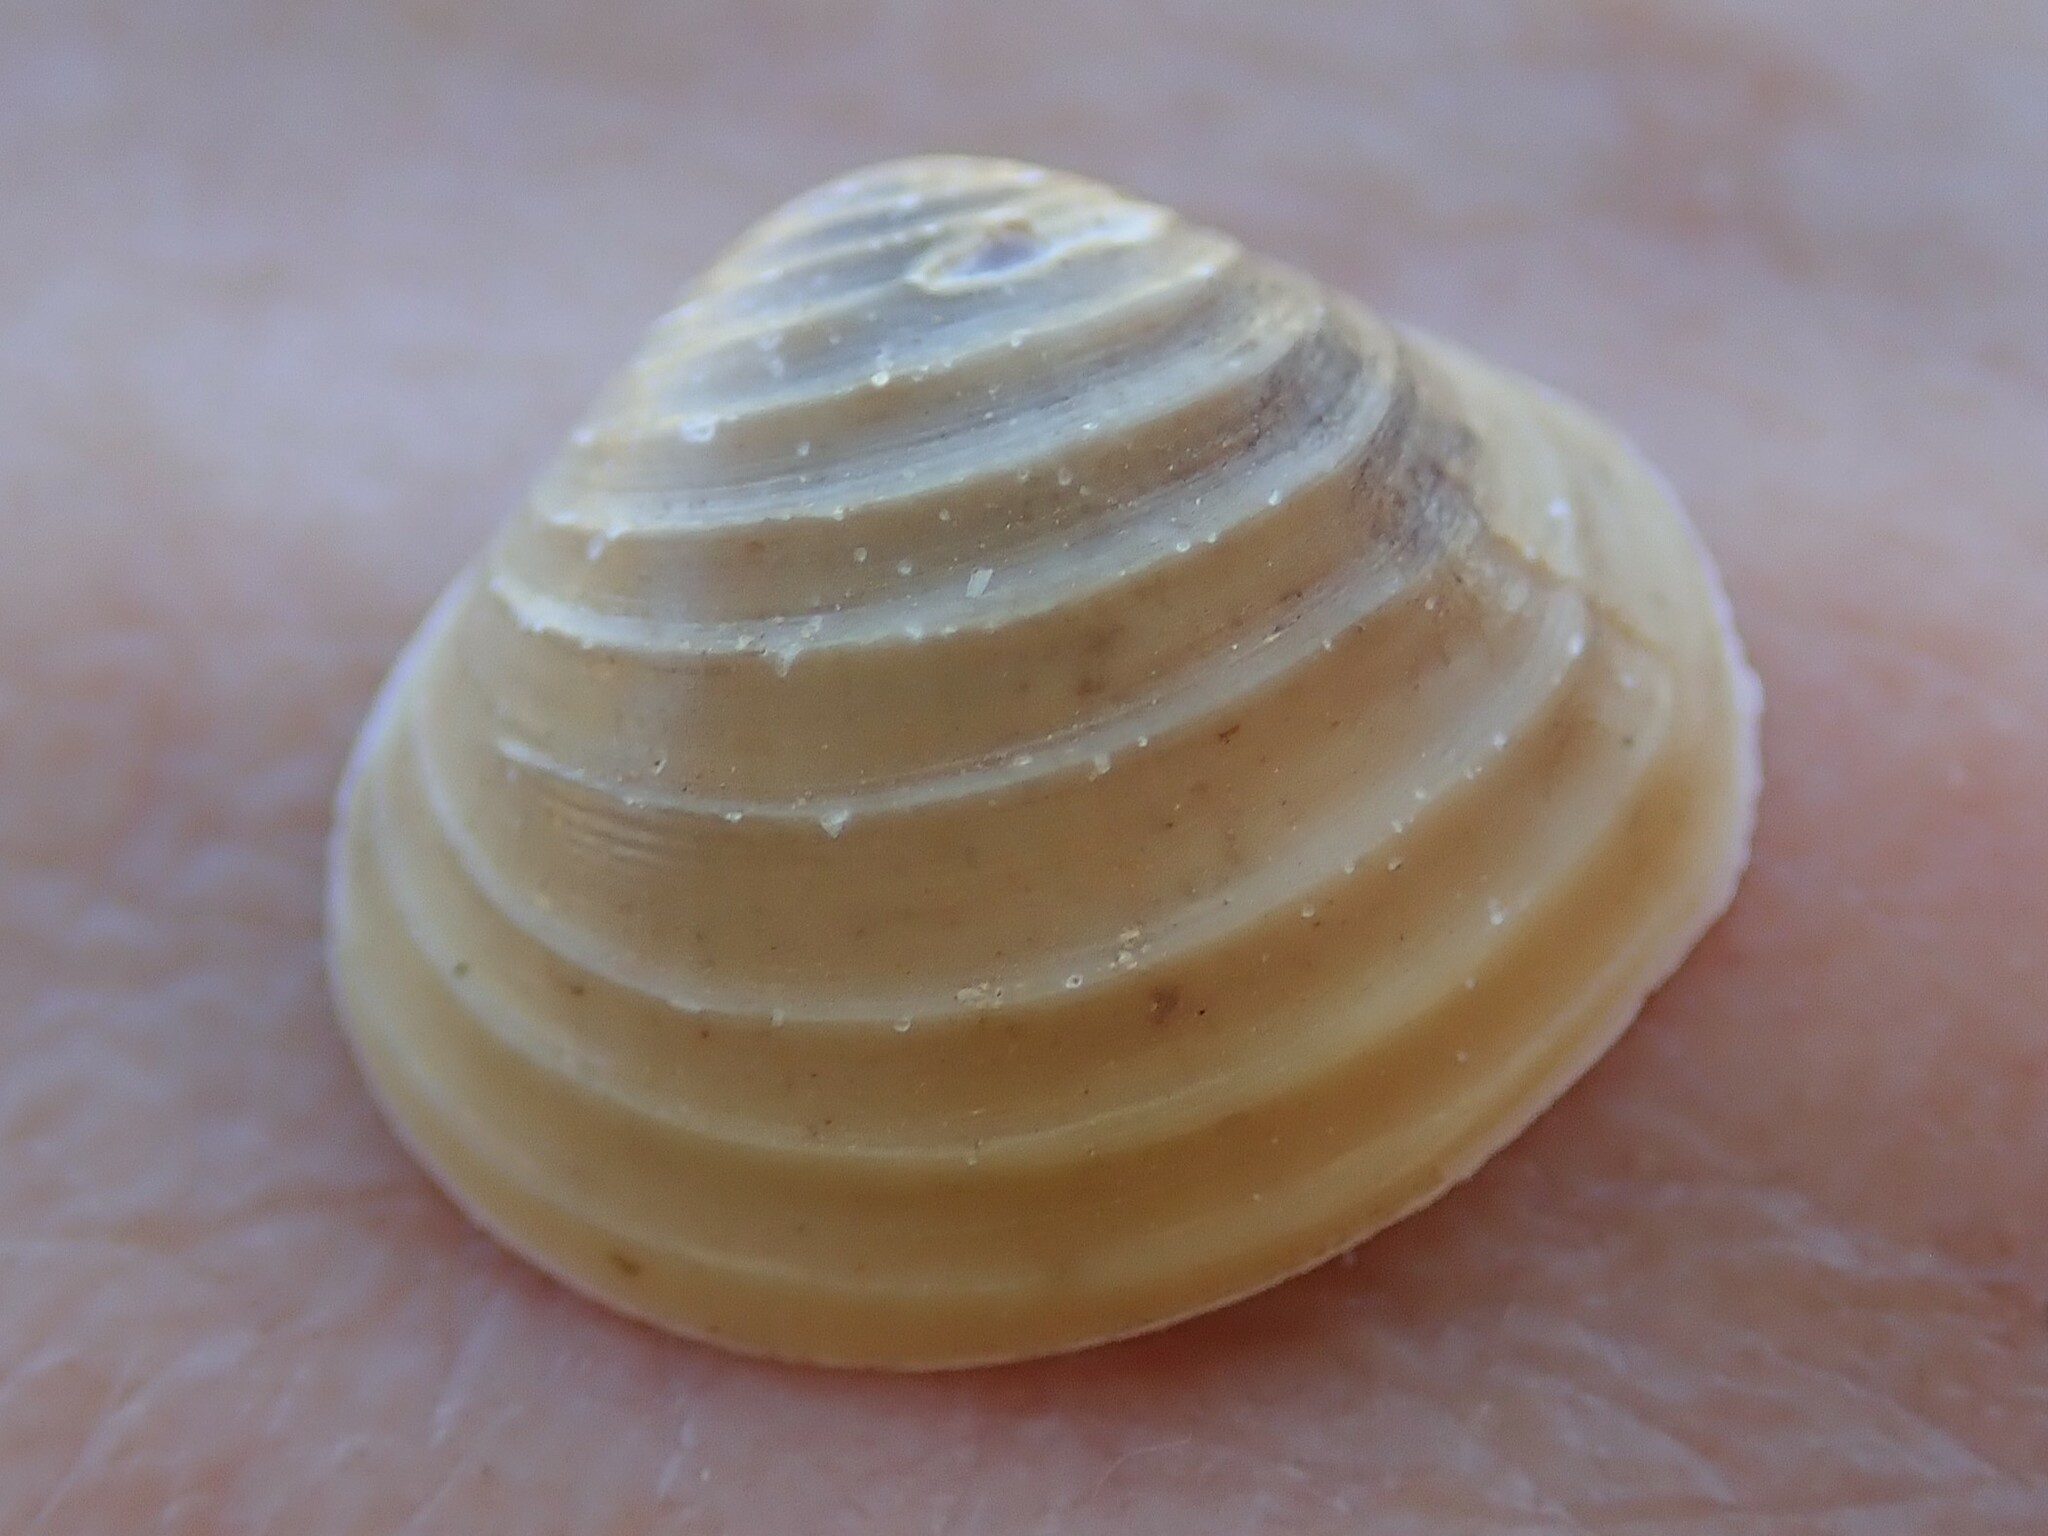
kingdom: Animalia
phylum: Mollusca
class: Bivalvia
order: Venerida
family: Cyrenidae
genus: Corbicula
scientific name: Corbicula fluminea
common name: Asian clam
